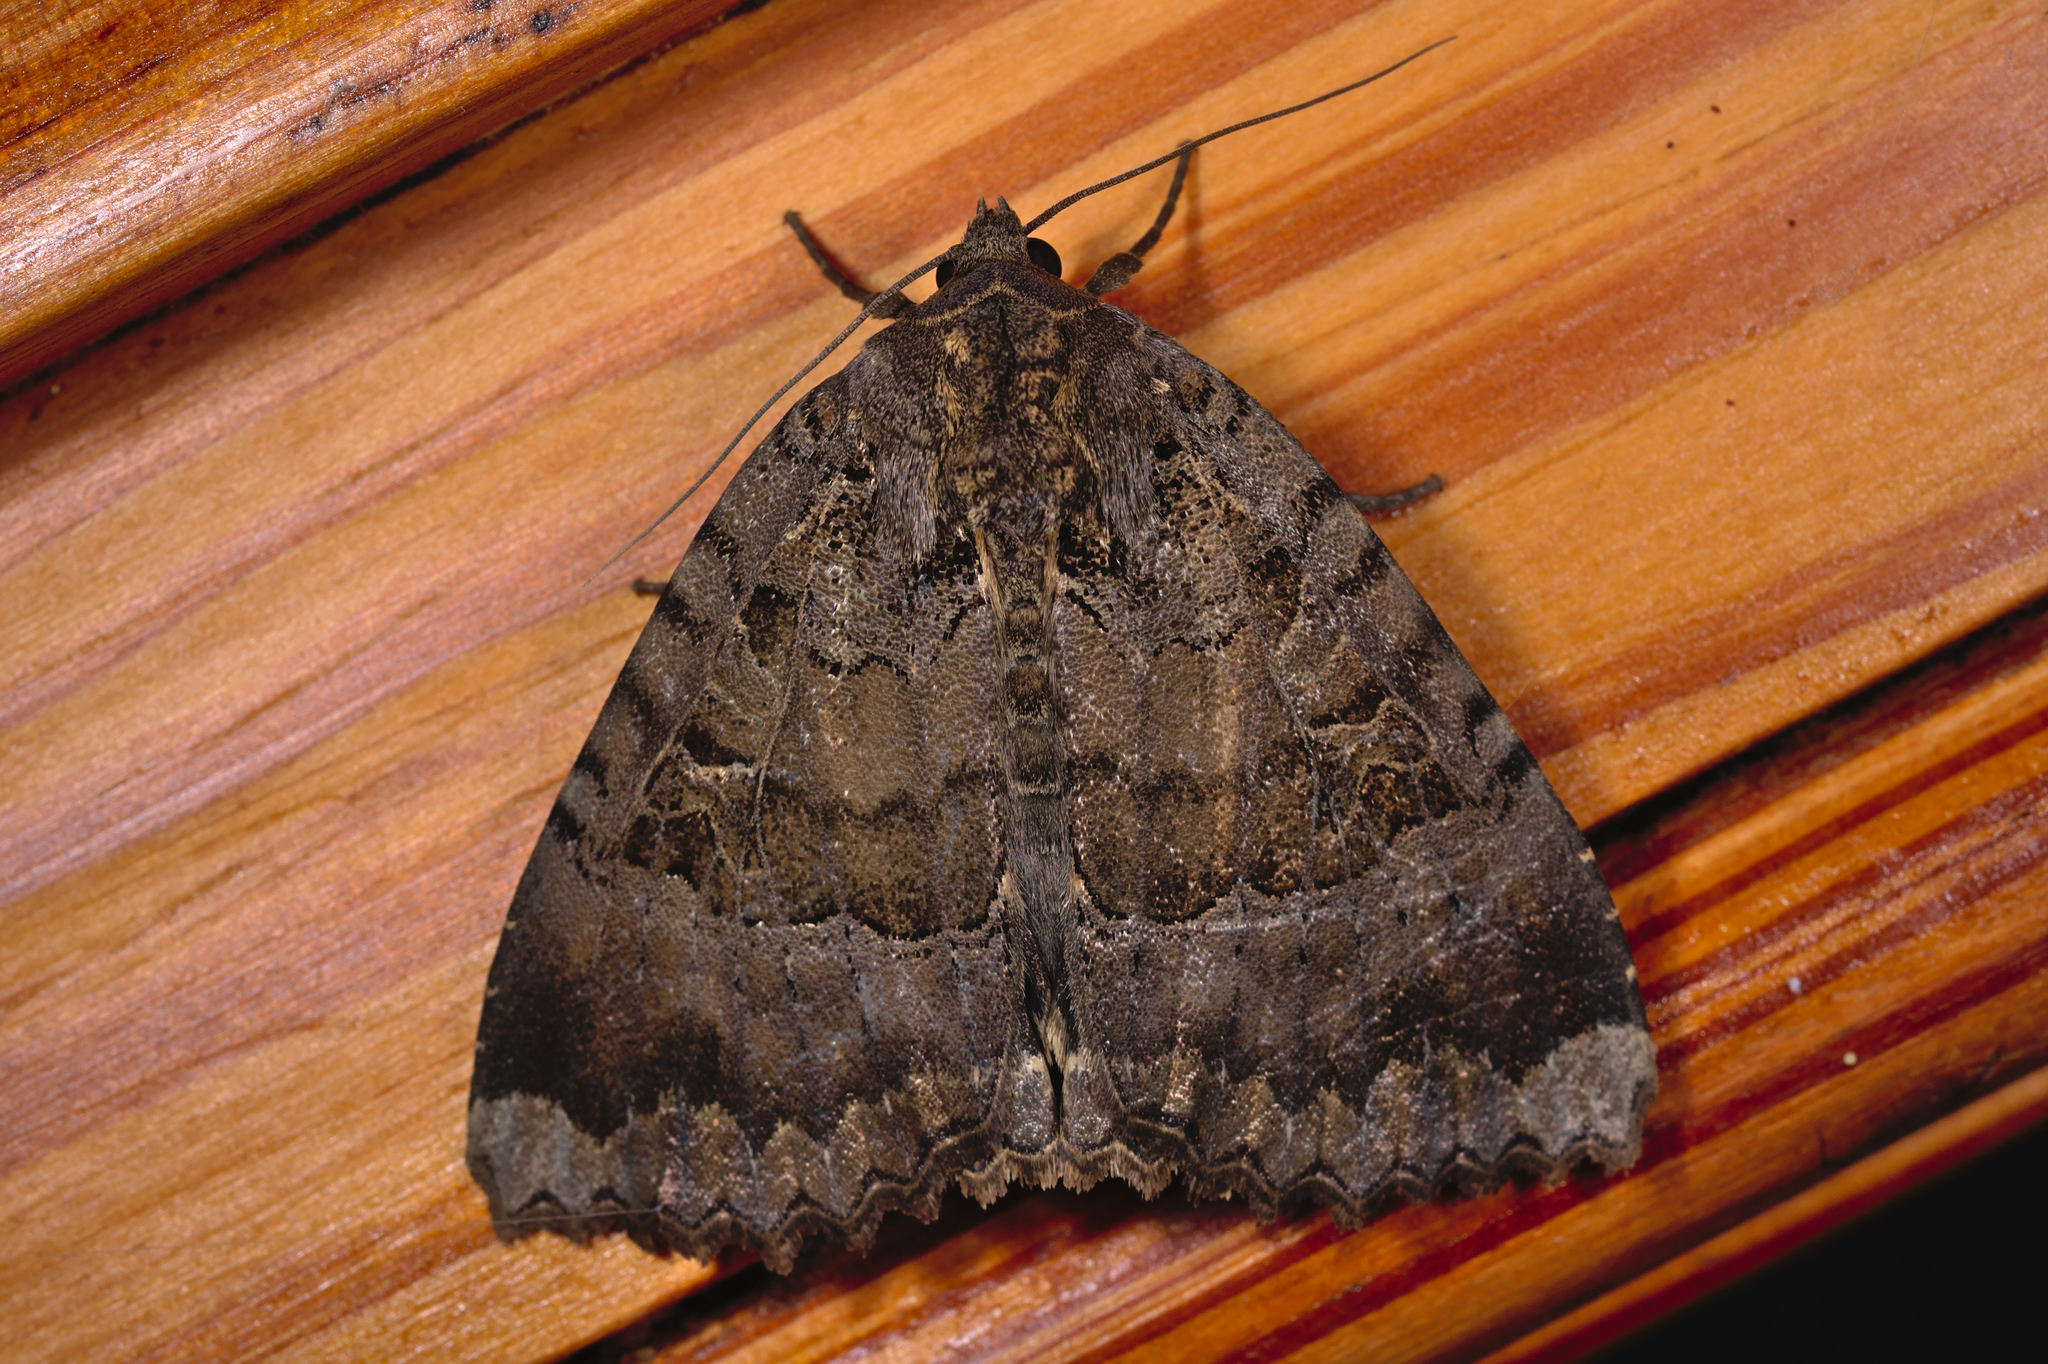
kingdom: Animalia
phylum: Arthropoda
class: Insecta
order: Lepidoptera
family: Noctuidae
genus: Mormo
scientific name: Mormo maura
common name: Old lady
